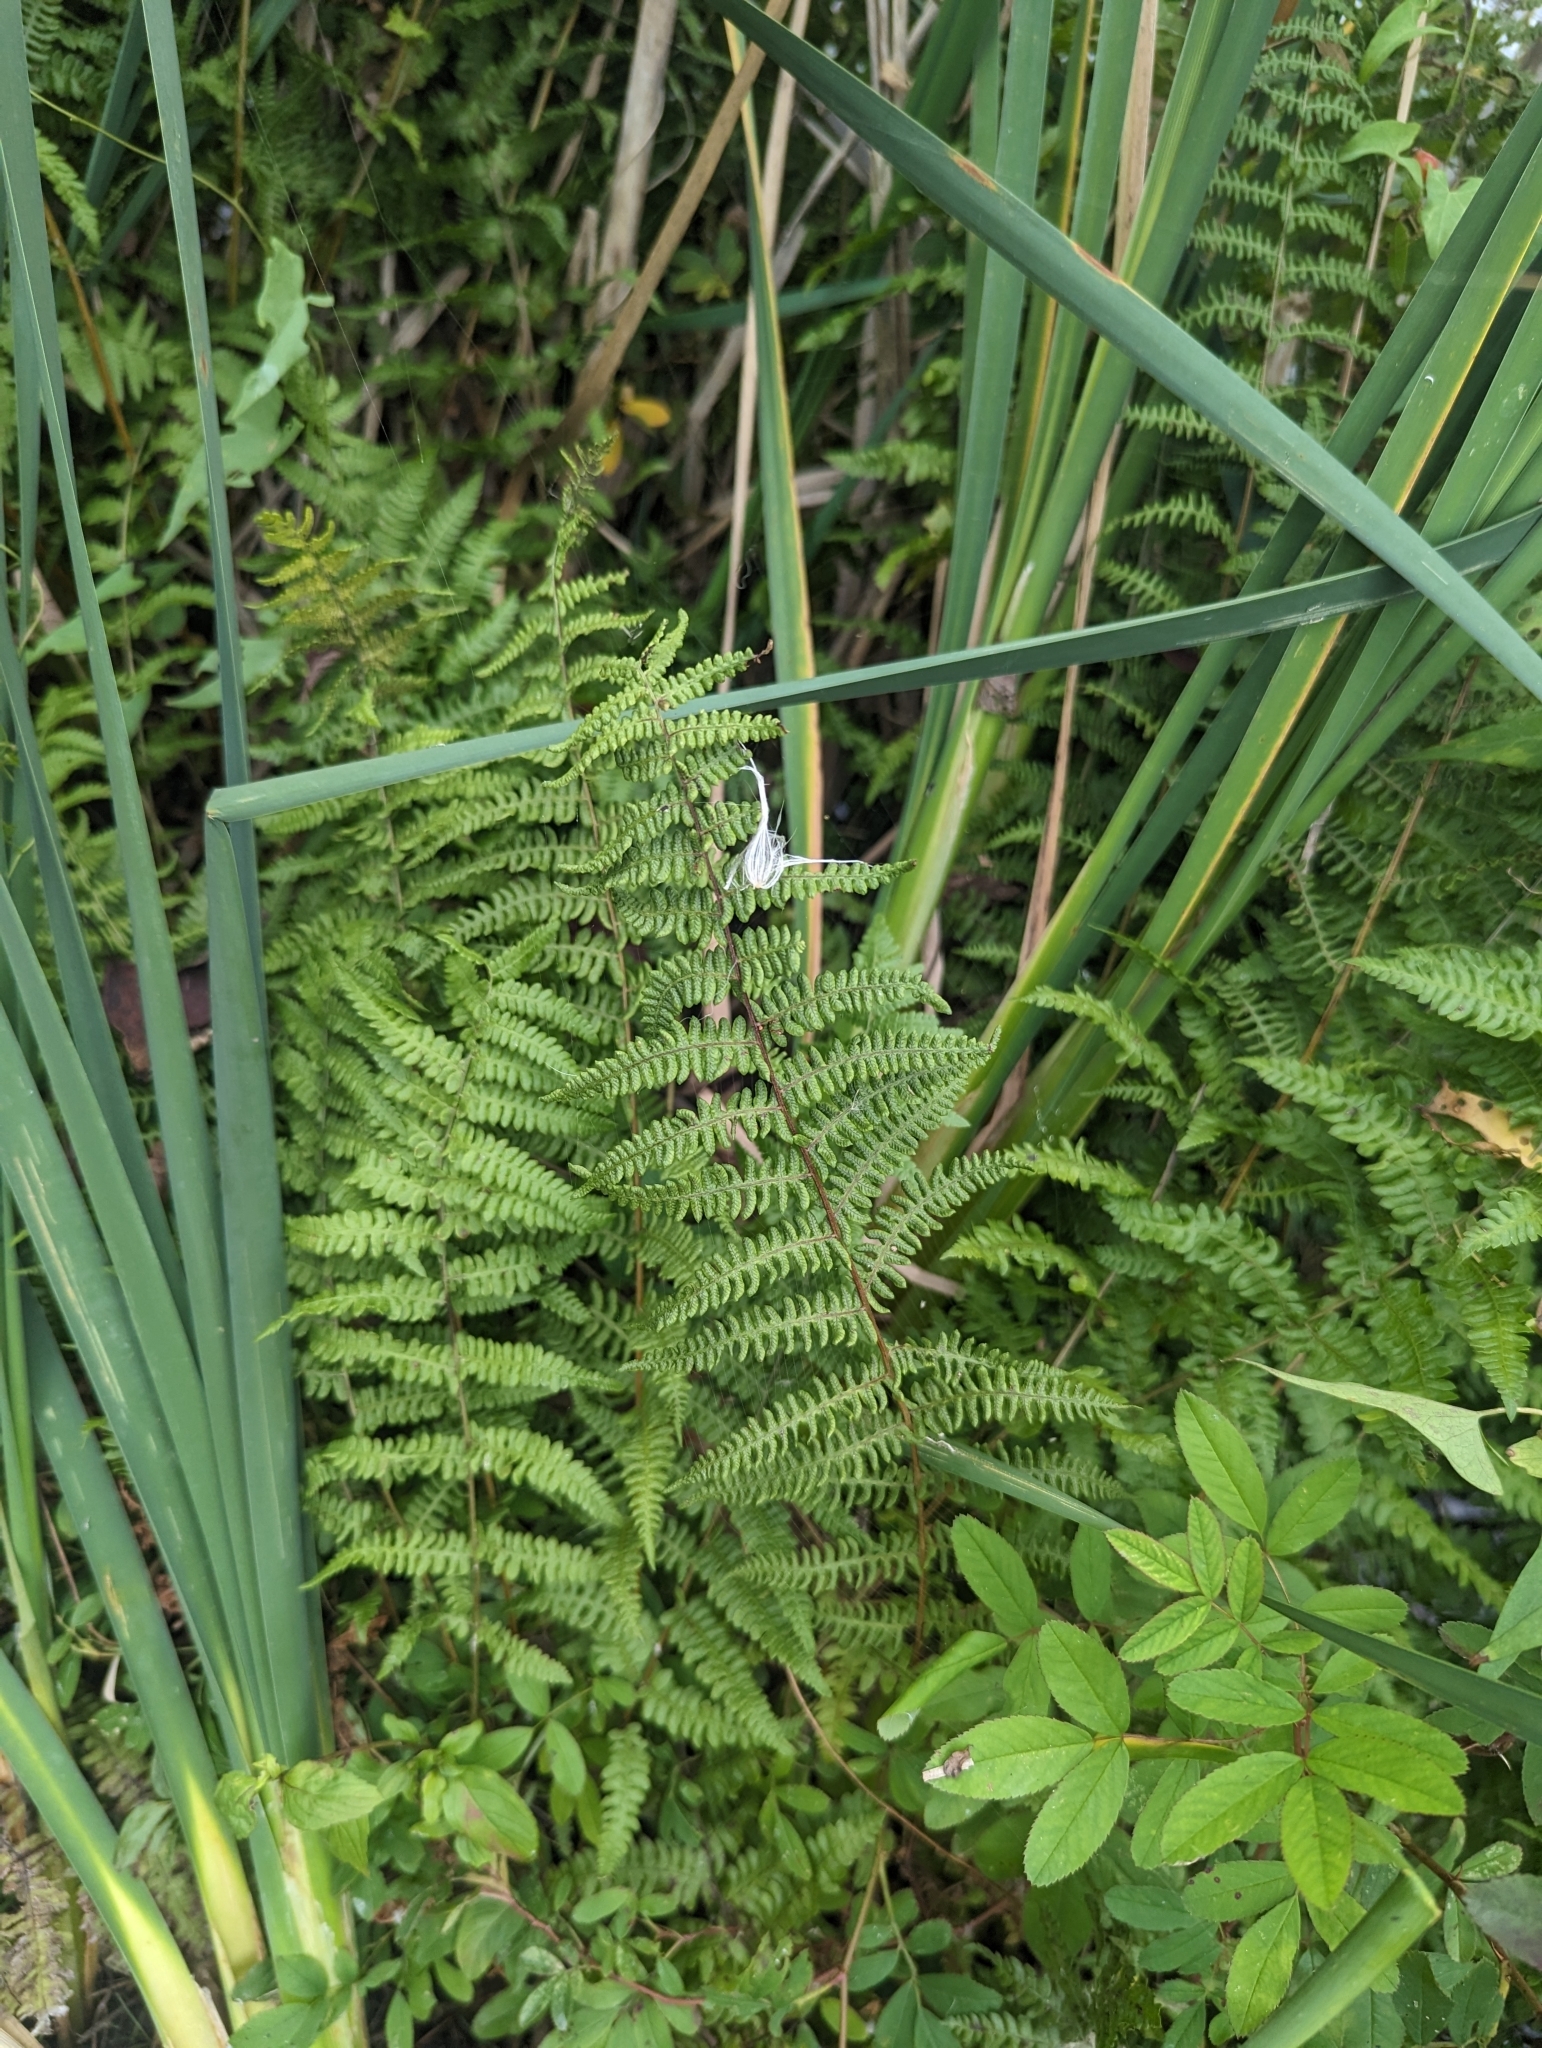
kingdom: Plantae
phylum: Tracheophyta
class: Polypodiopsida
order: Polypodiales
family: Thelypteridaceae
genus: Thelypteris
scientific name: Thelypteris palustris
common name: Marsh fern
